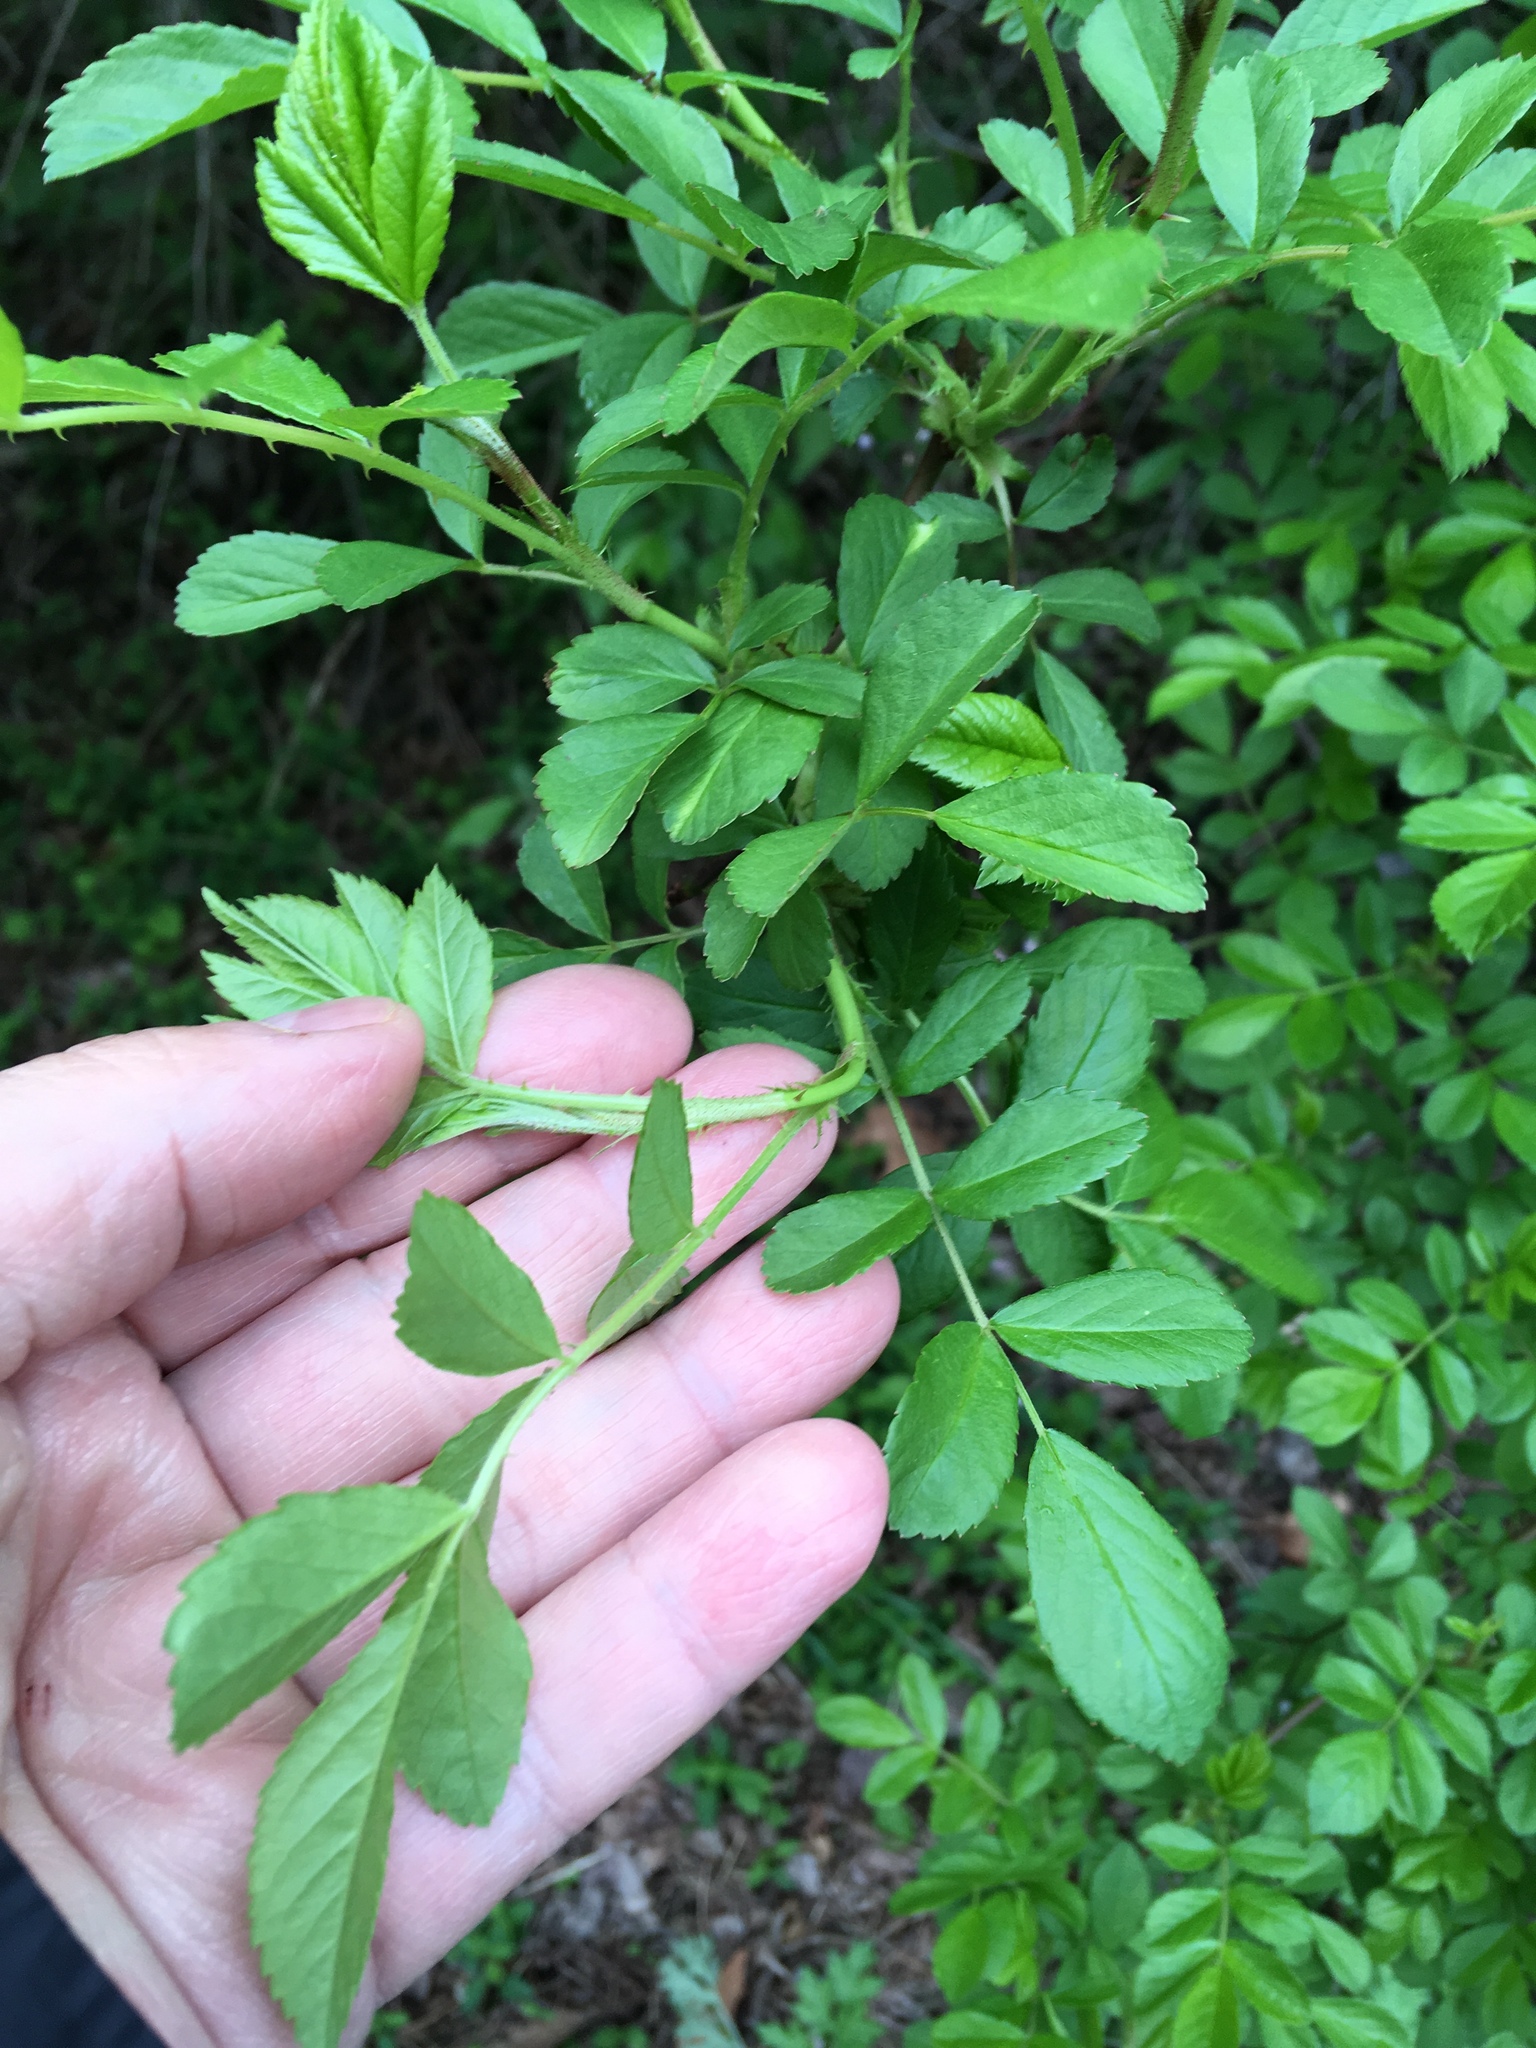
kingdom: Plantae
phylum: Tracheophyta
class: Magnoliopsida
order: Rosales
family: Rosaceae
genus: Rosa
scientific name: Rosa multiflora
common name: Multiflora rose
